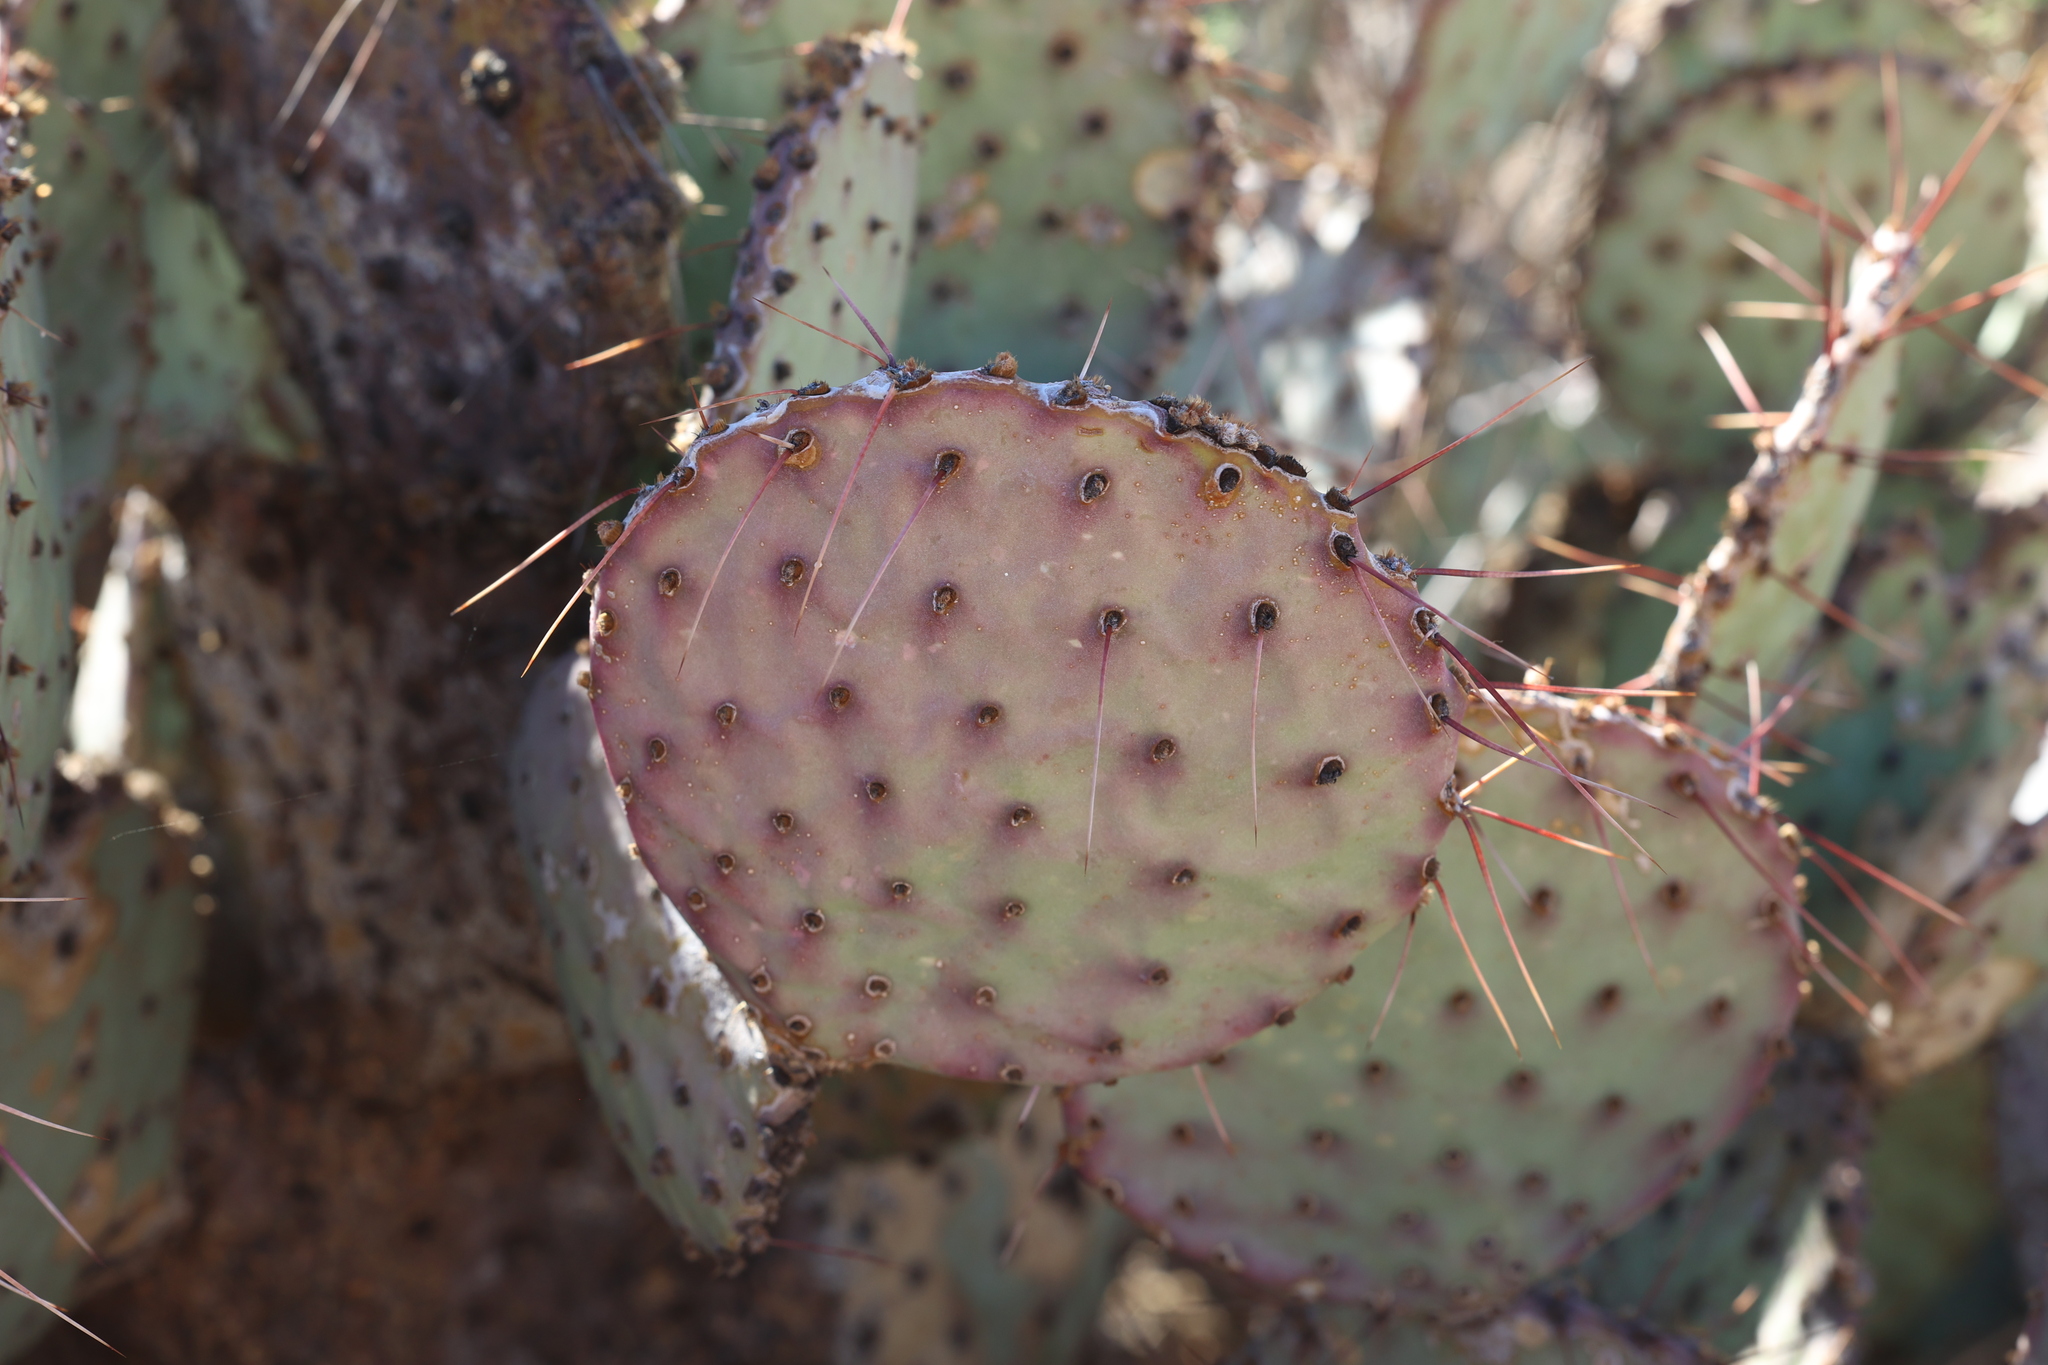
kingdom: Plantae
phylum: Tracheophyta
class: Magnoliopsida
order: Caryophyllales
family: Cactaceae
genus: Opuntia
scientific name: Opuntia macrocentra
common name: Purple prickly-pear
